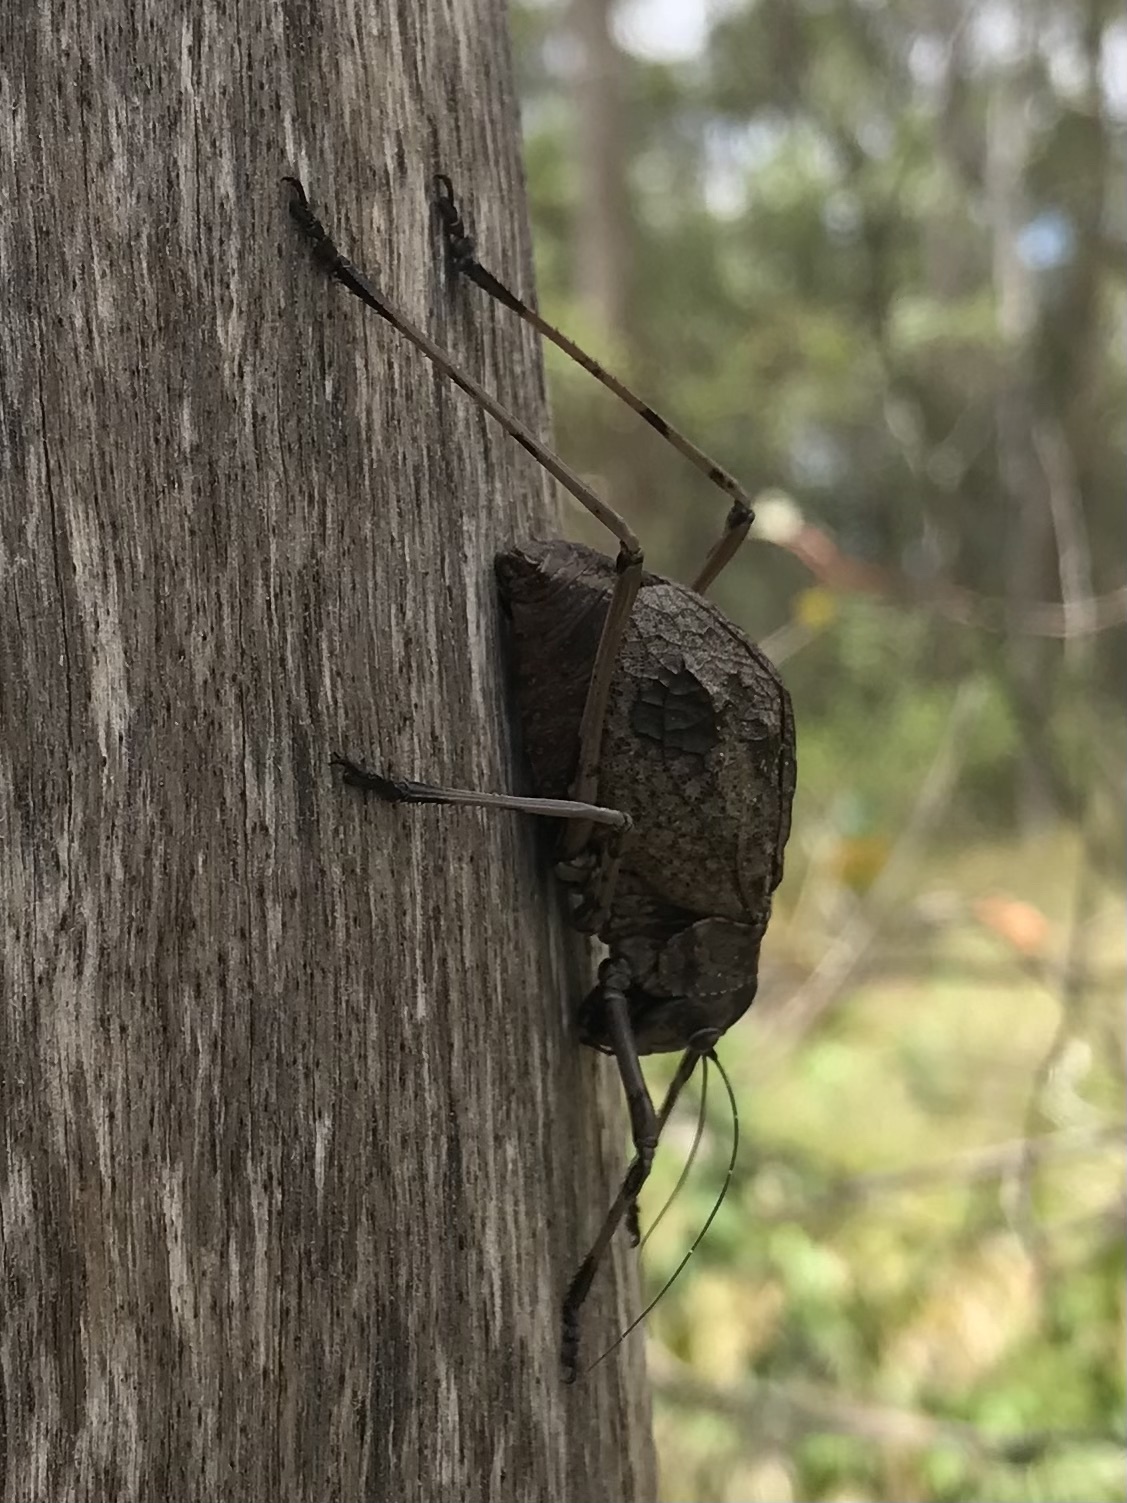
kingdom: Animalia
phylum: Arthropoda
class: Insecta
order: Orthoptera
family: Tettigoniidae
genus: Acripeza
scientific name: Acripeza reticulata
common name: Mountain katydid
